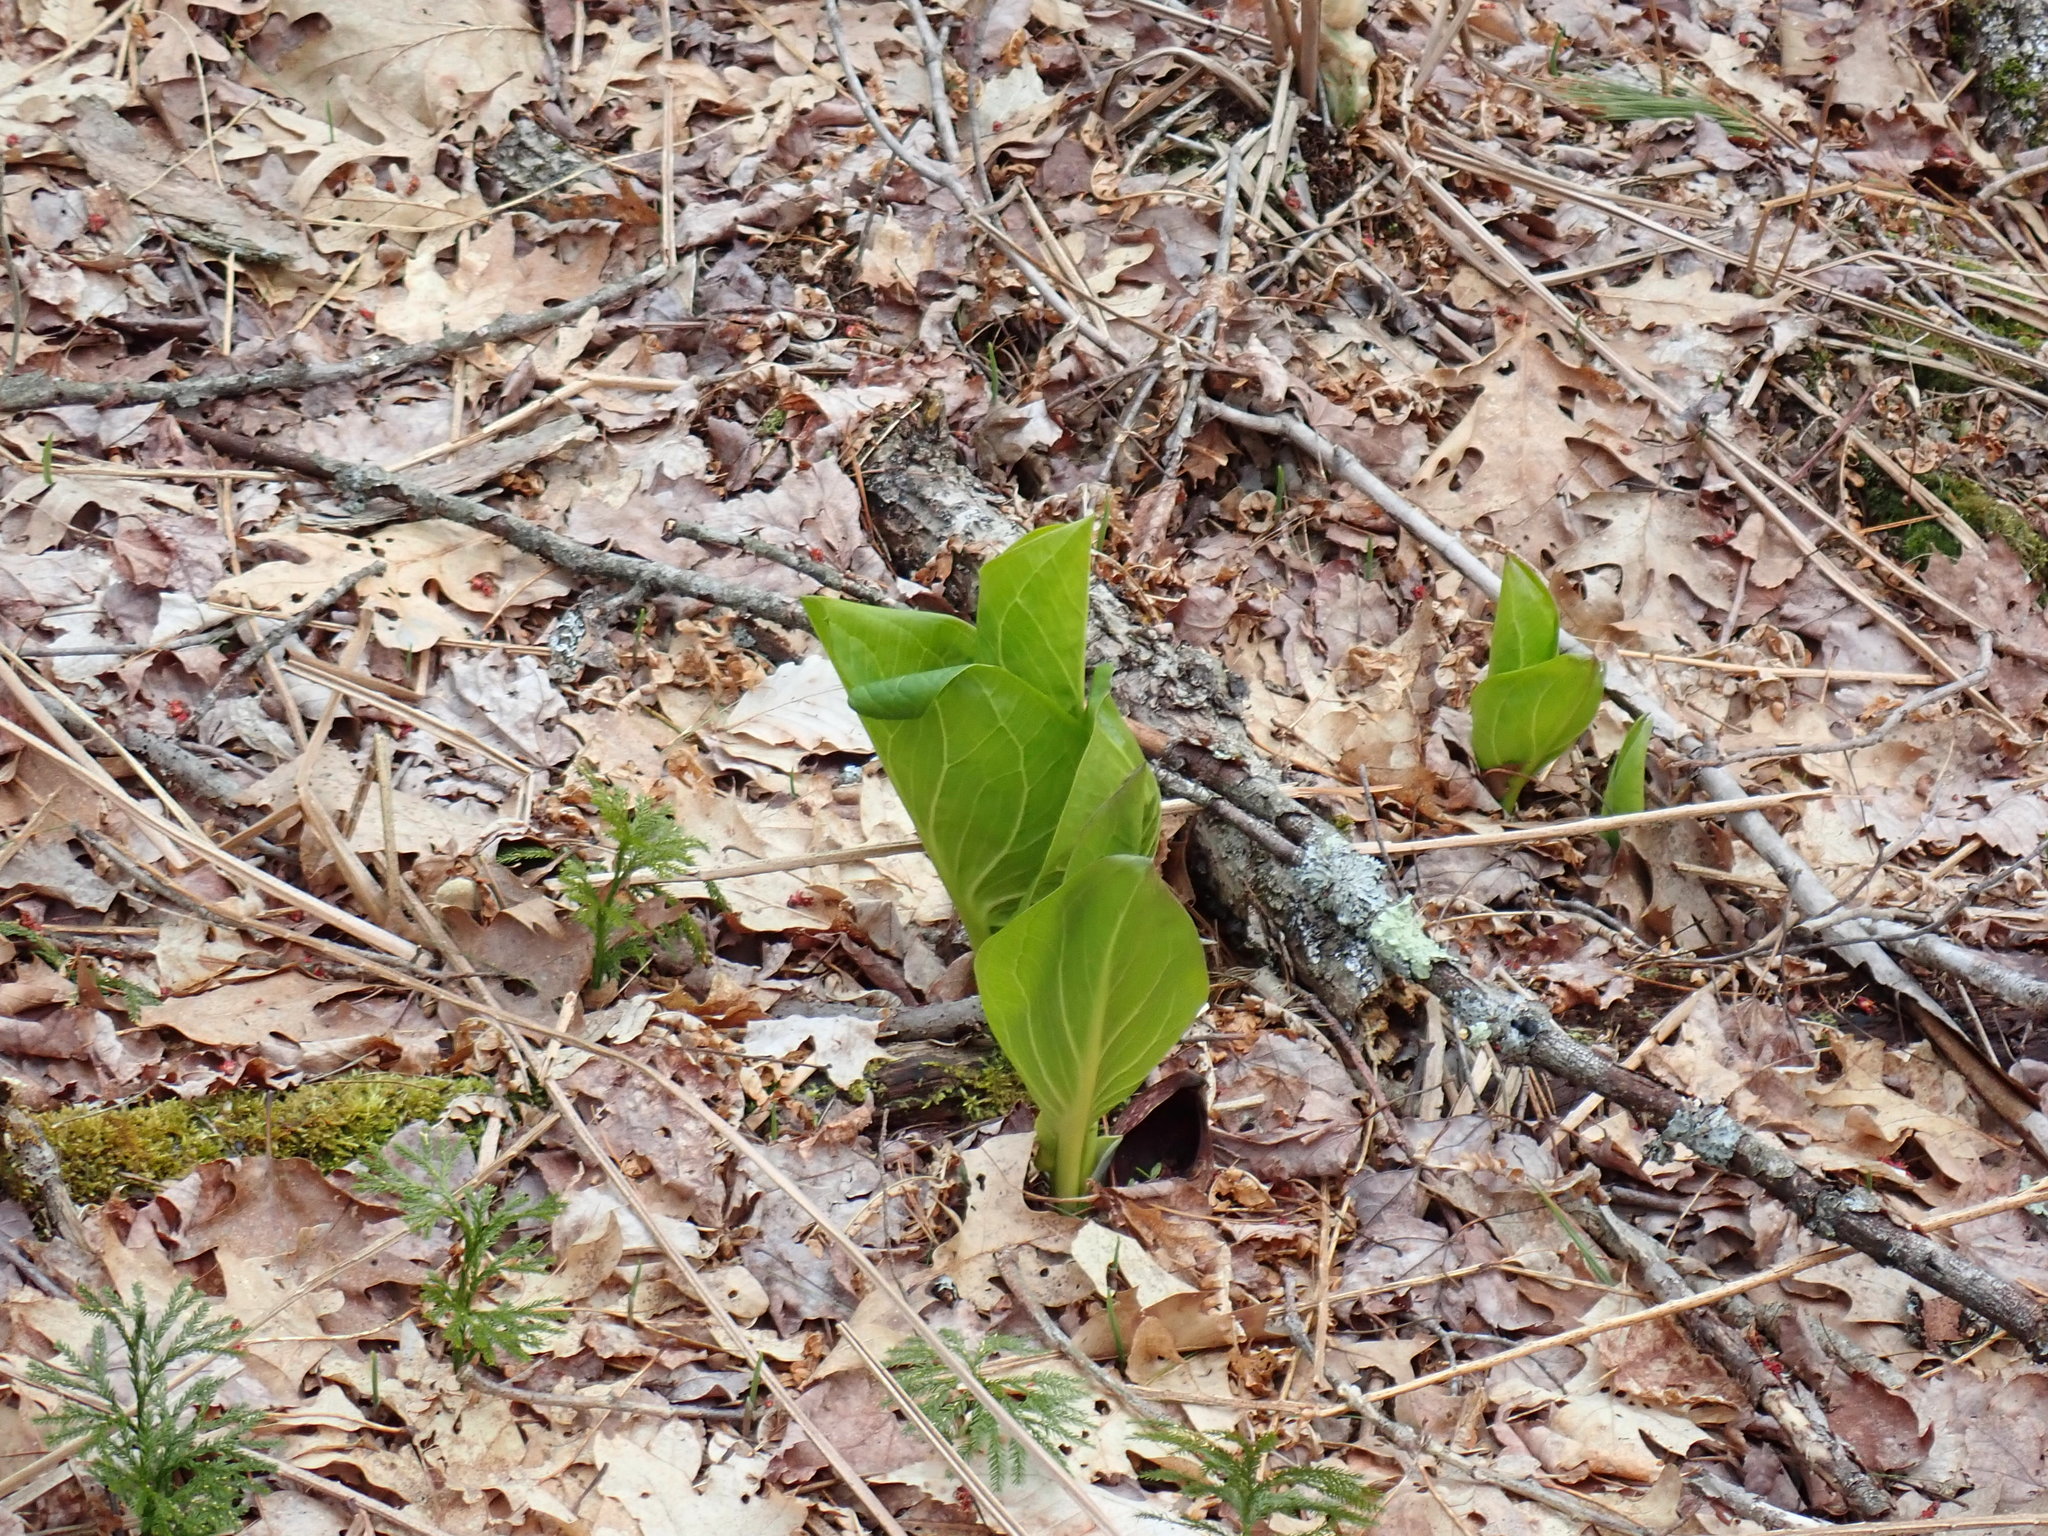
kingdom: Plantae
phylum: Tracheophyta
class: Liliopsida
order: Alismatales
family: Araceae
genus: Symplocarpus
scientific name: Symplocarpus foetidus
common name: Eastern skunk cabbage
